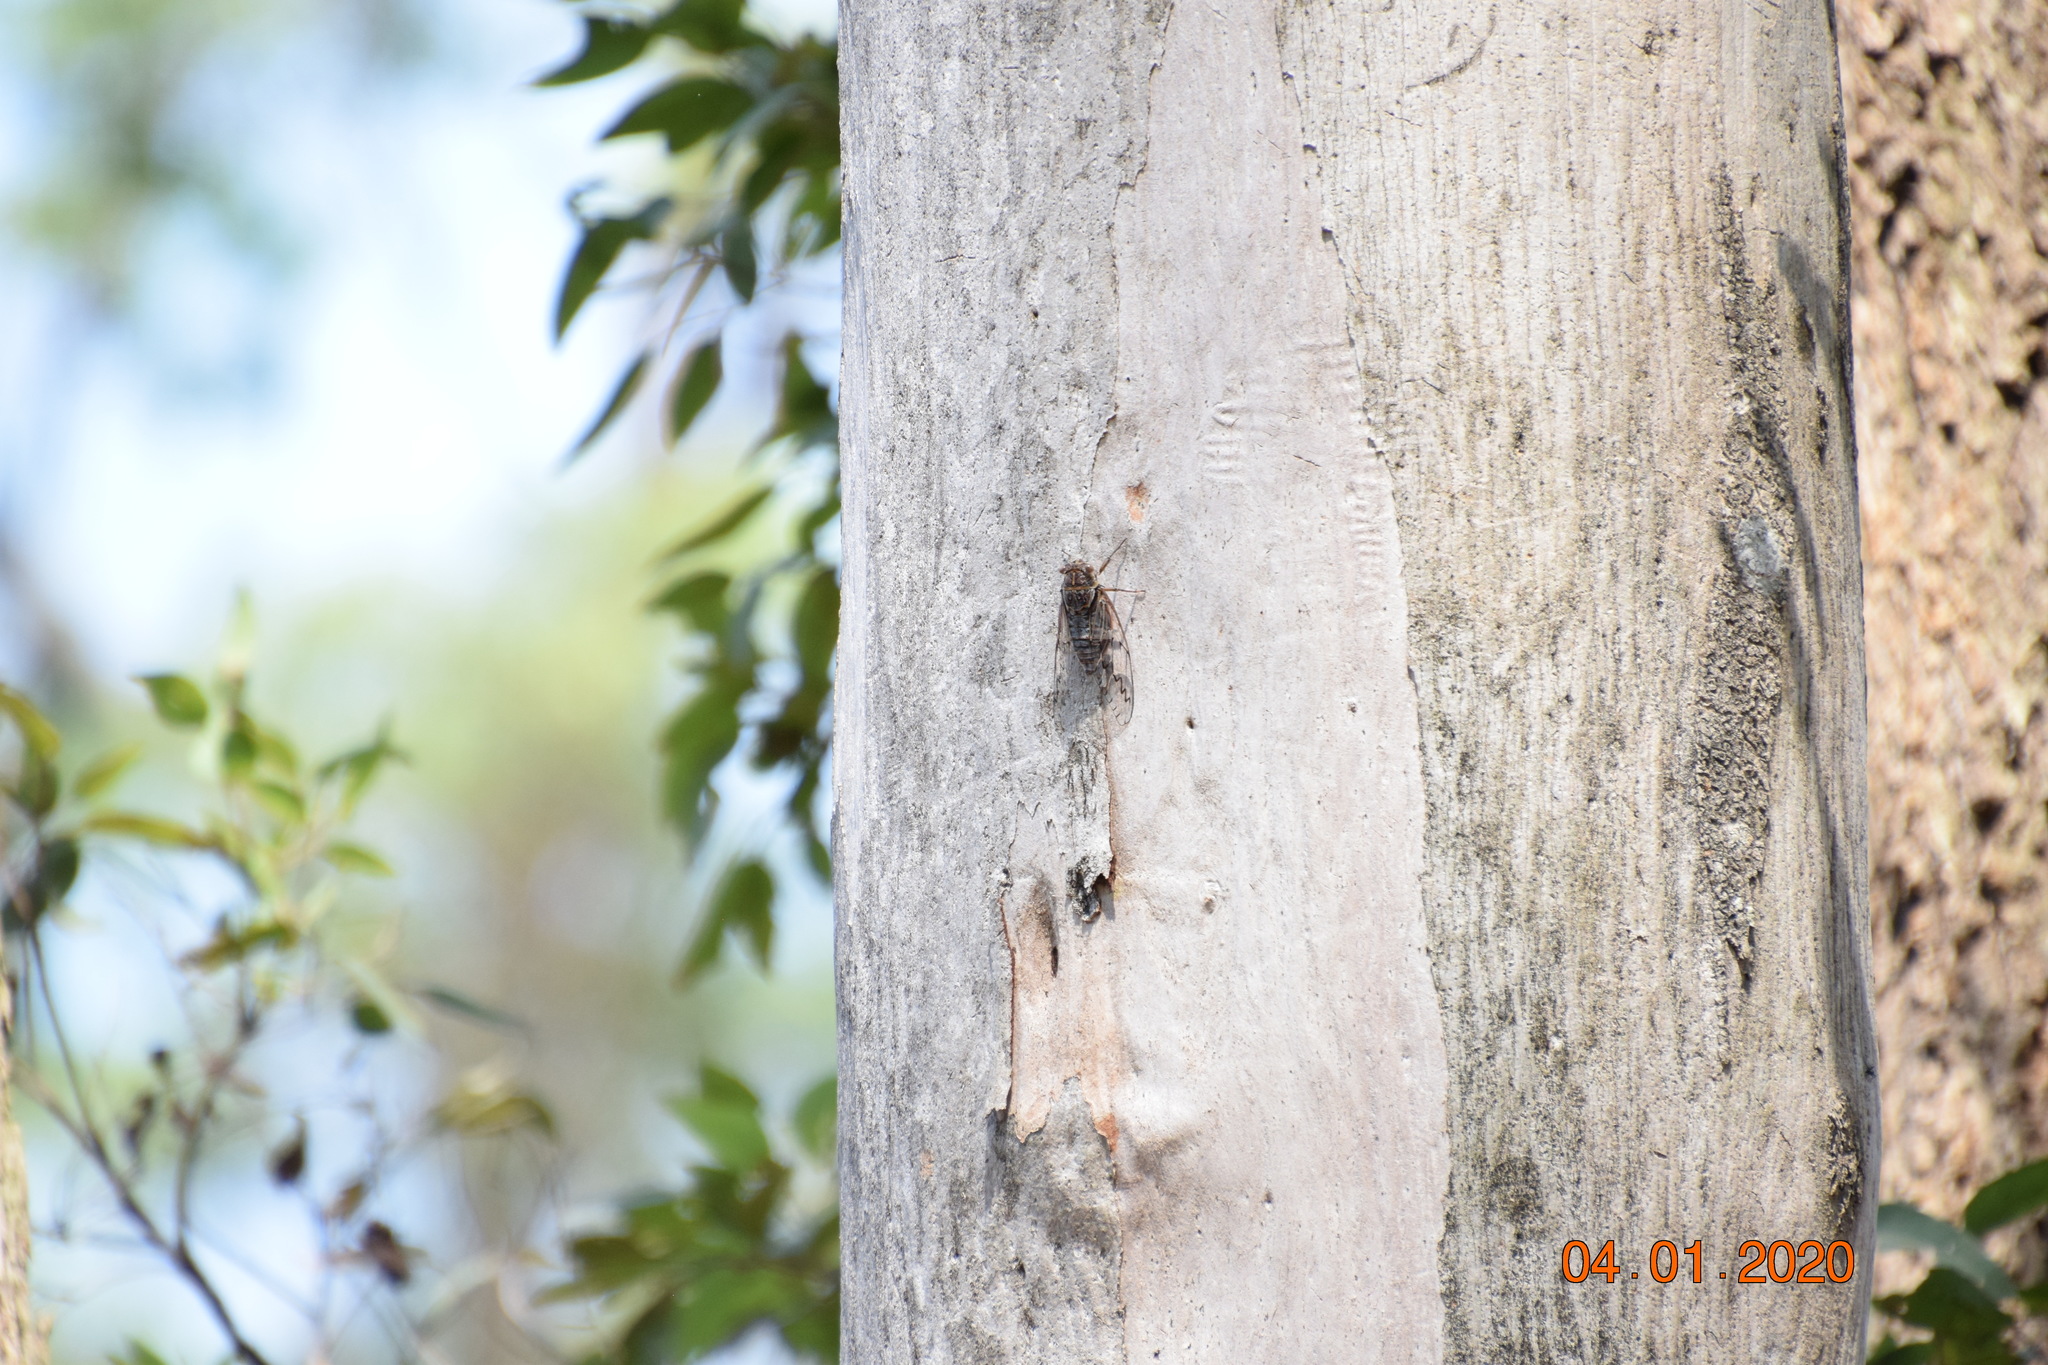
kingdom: Animalia
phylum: Arthropoda
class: Insecta
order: Hemiptera
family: Cicadidae
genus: Henicopsaltria
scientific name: Henicopsaltria eydouxii
